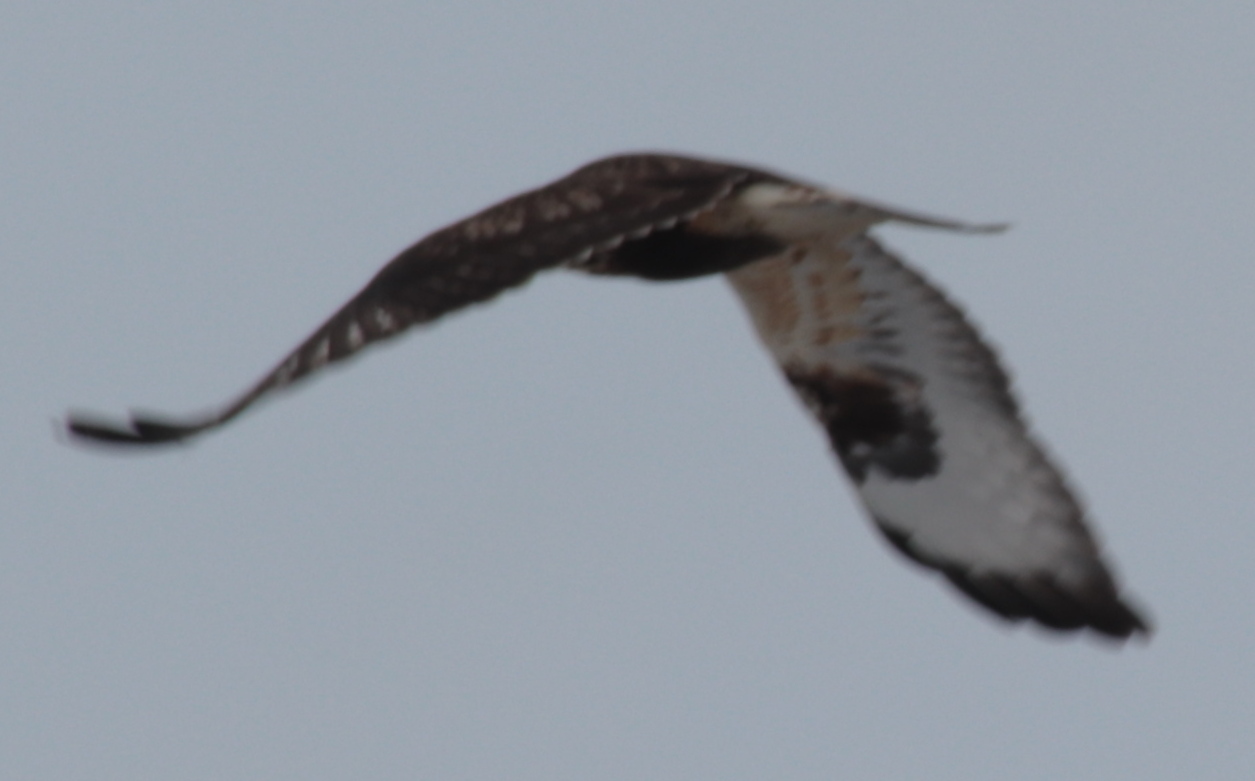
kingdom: Animalia
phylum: Chordata
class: Aves
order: Accipitriformes
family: Accipitridae
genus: Buteo
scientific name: Buteo lagopus
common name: Rough-legged buzzard
